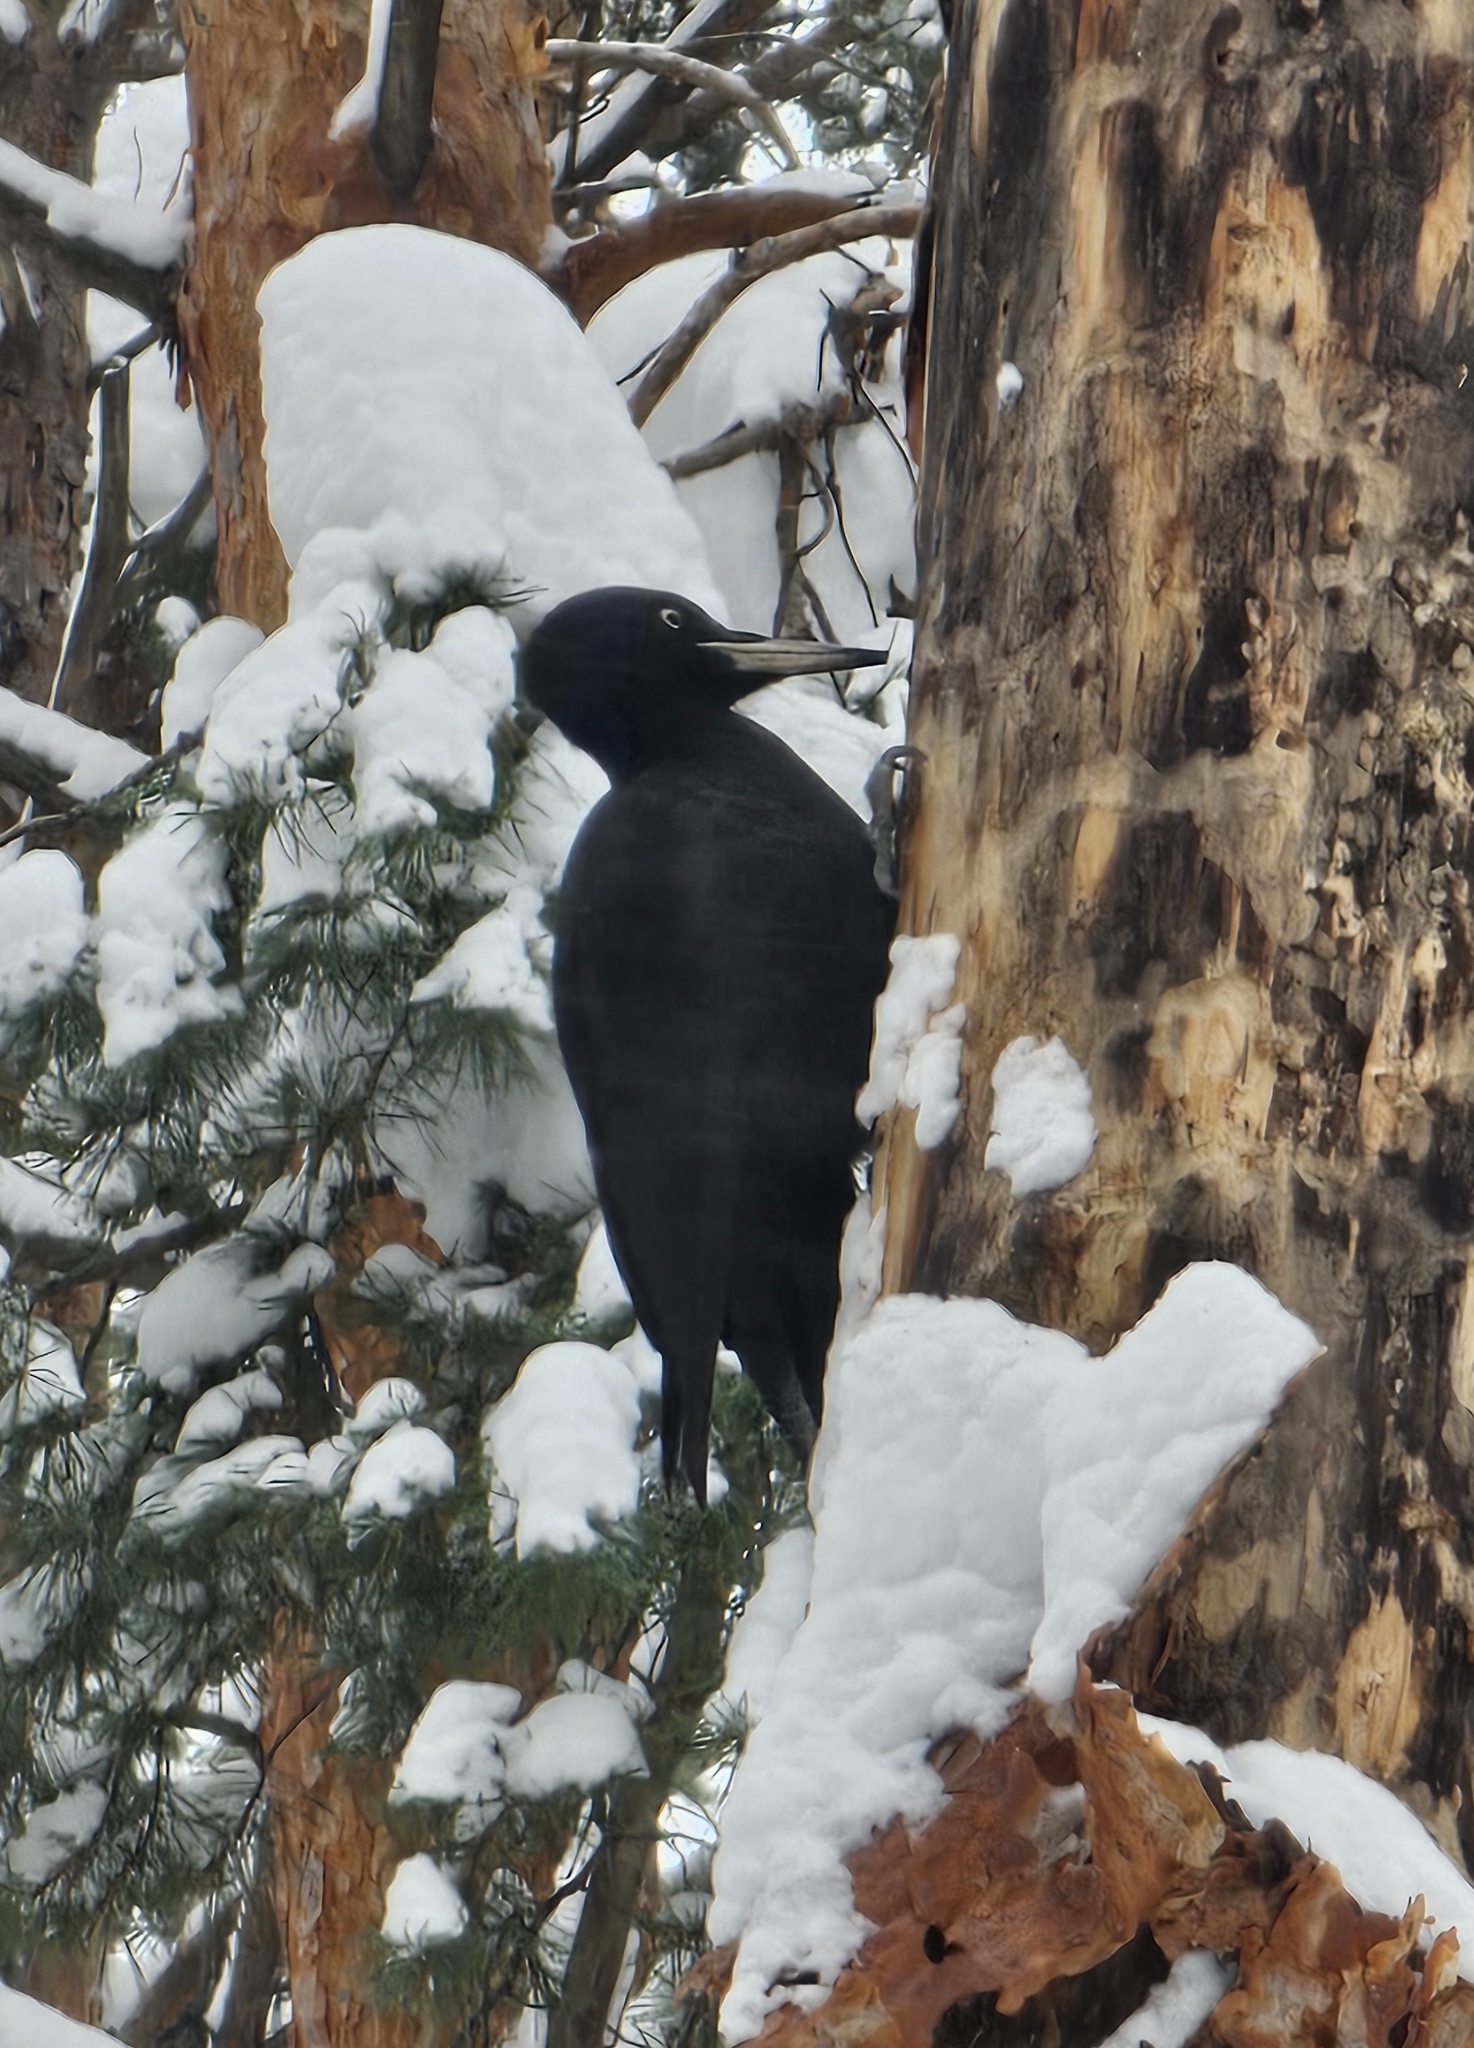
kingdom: Animalia
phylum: Chordata
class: Aves
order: Piciformes
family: Picidae
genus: Dryocopus
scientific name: Dryocopus martius
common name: Black woodpecker
